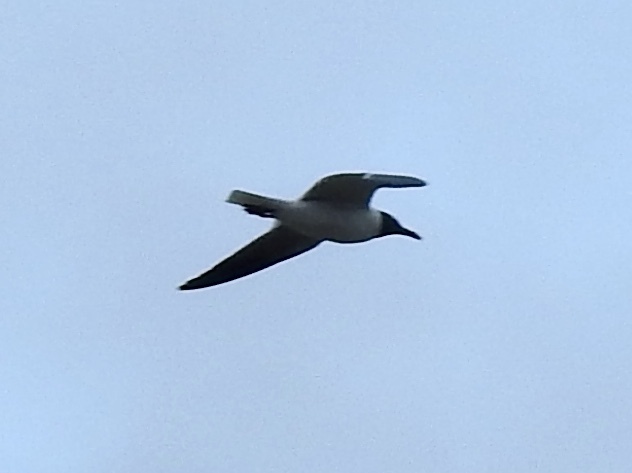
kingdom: Animalia
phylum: Chordata
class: Aves
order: Charadriiformes
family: Laridae
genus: Leucophaeus
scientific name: Leucophaeus atricilla
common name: Laughing gull
